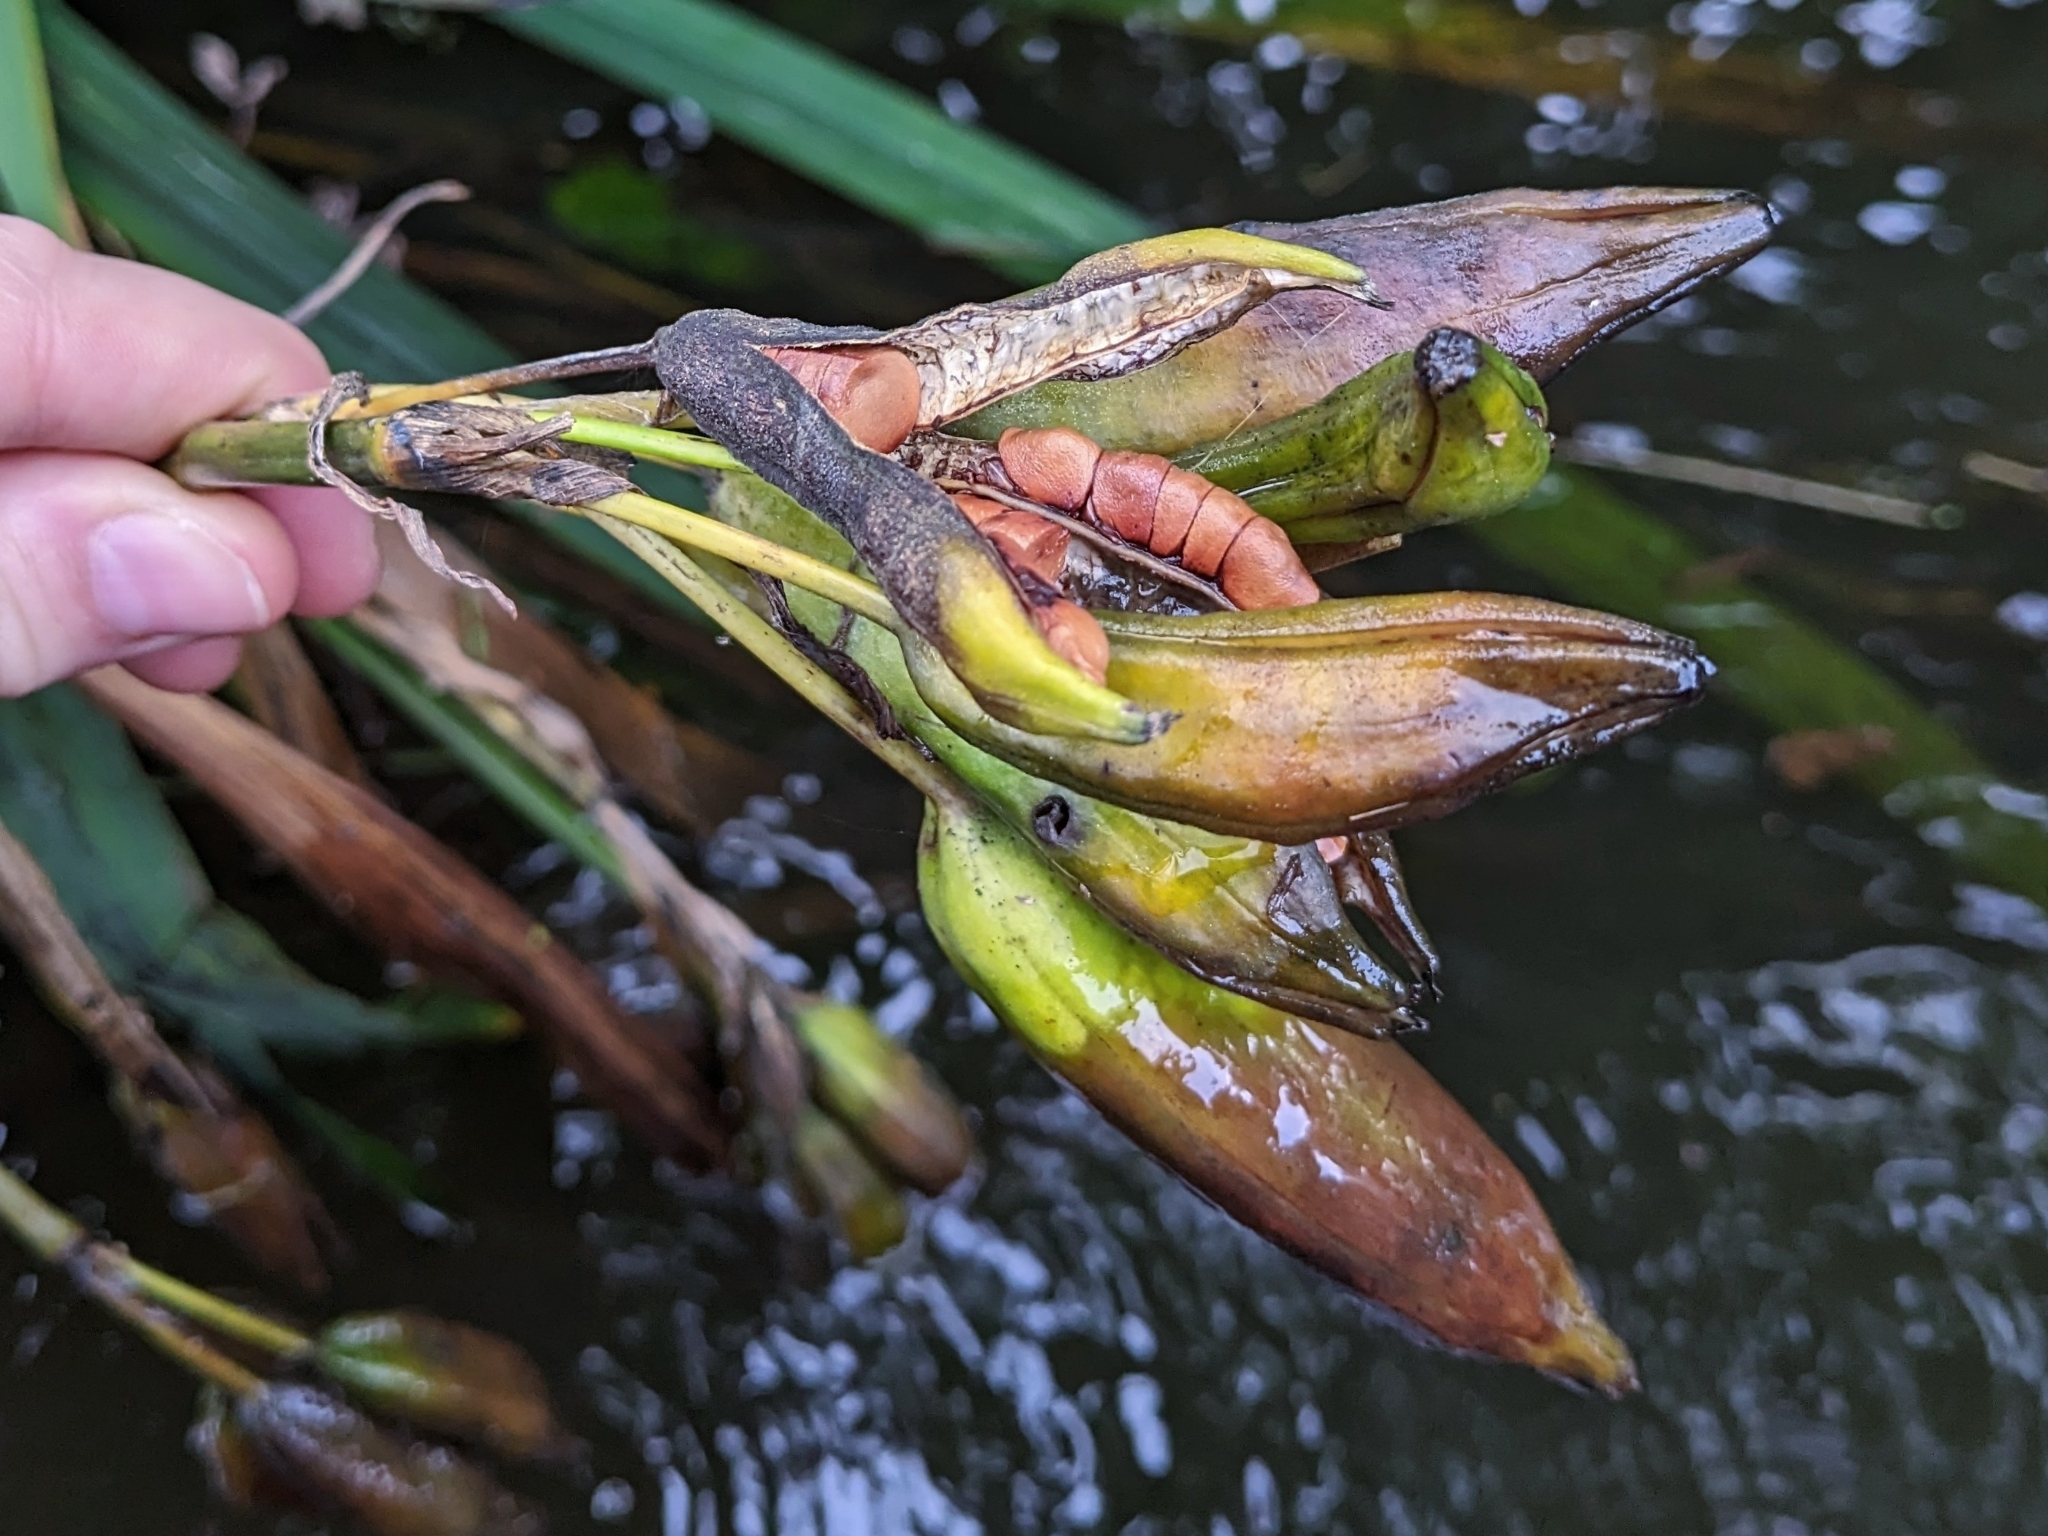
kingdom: Plantae
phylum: Tracheophyta
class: Liliopsida
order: Asparagales
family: Iridaceae
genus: Iris
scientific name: Iris pseudacorus
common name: Yellow flag
